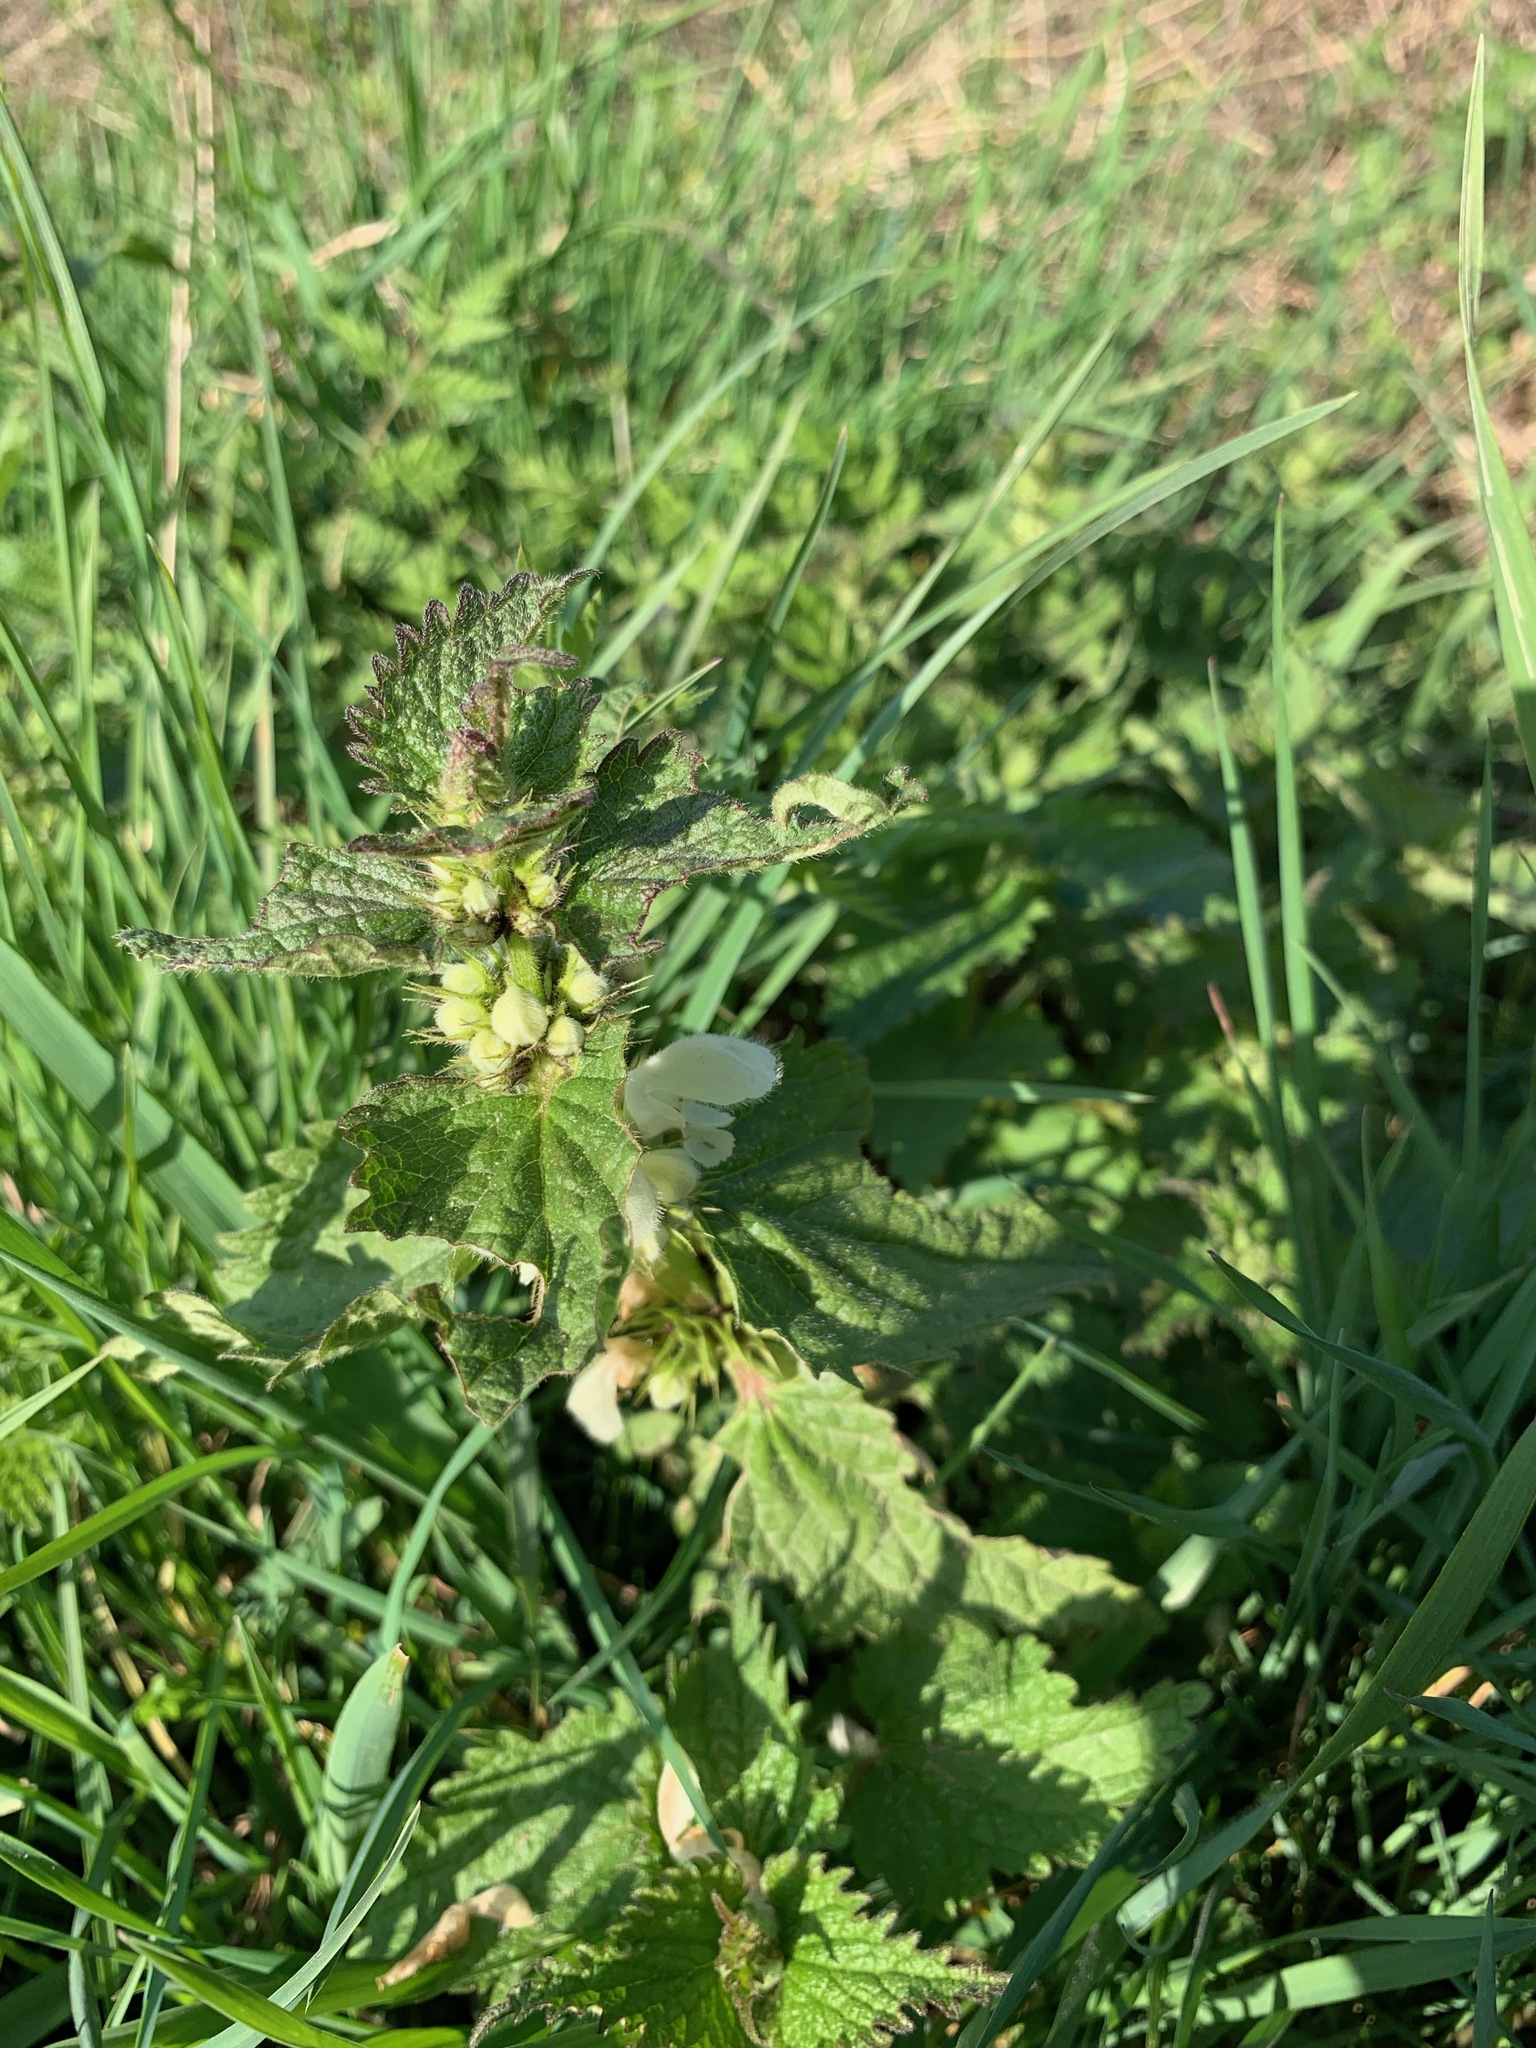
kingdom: Plantae
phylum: Tracheophyta
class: Magnoliopsida
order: Lamiales
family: Lamiaceae
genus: Lamium
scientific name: Lamium album
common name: White dead-nettle
